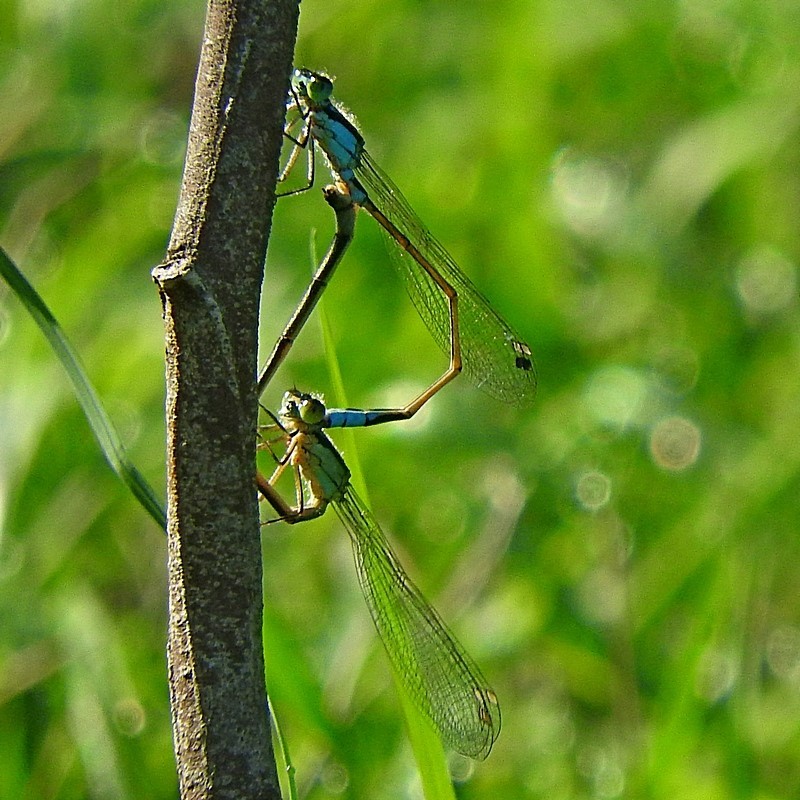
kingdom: Animalia
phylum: Arthropoda
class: Insecta
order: Odonata
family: Coenagrionidae
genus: Ischnura
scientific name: Ischnura heterosticta
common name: Common bluetail
